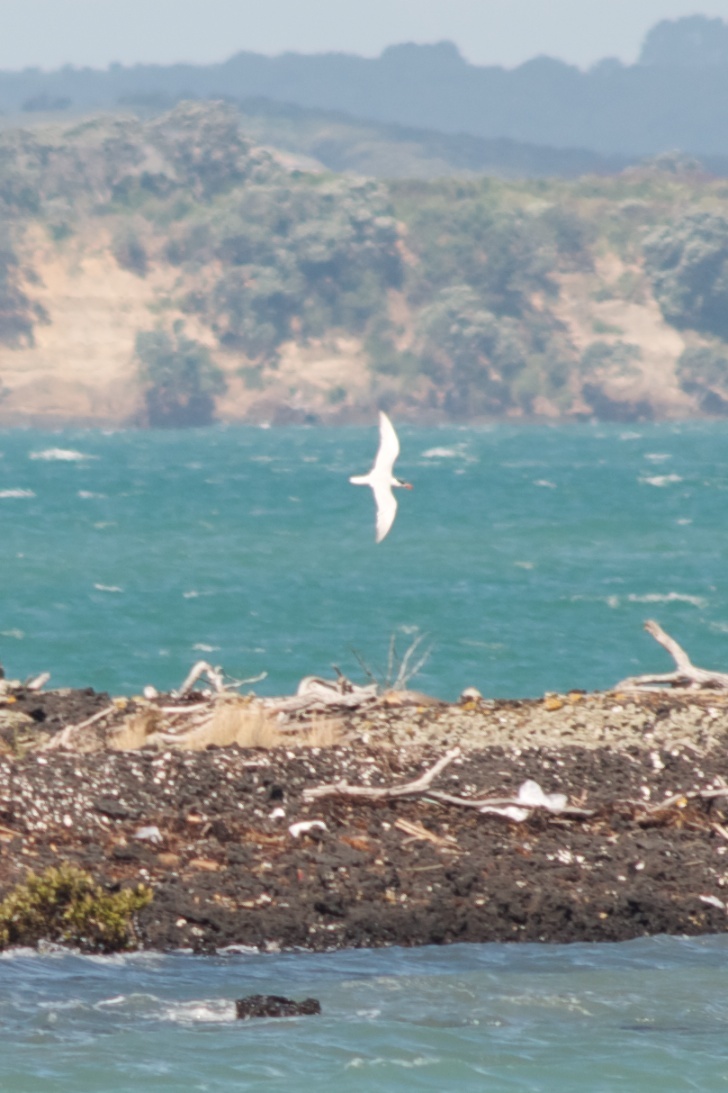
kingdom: Animalia
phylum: Chordata
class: Aves
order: Charadriiformes
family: Laridae
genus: Hydroprogne
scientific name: Hydroprogne caspia
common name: Caspian tern
